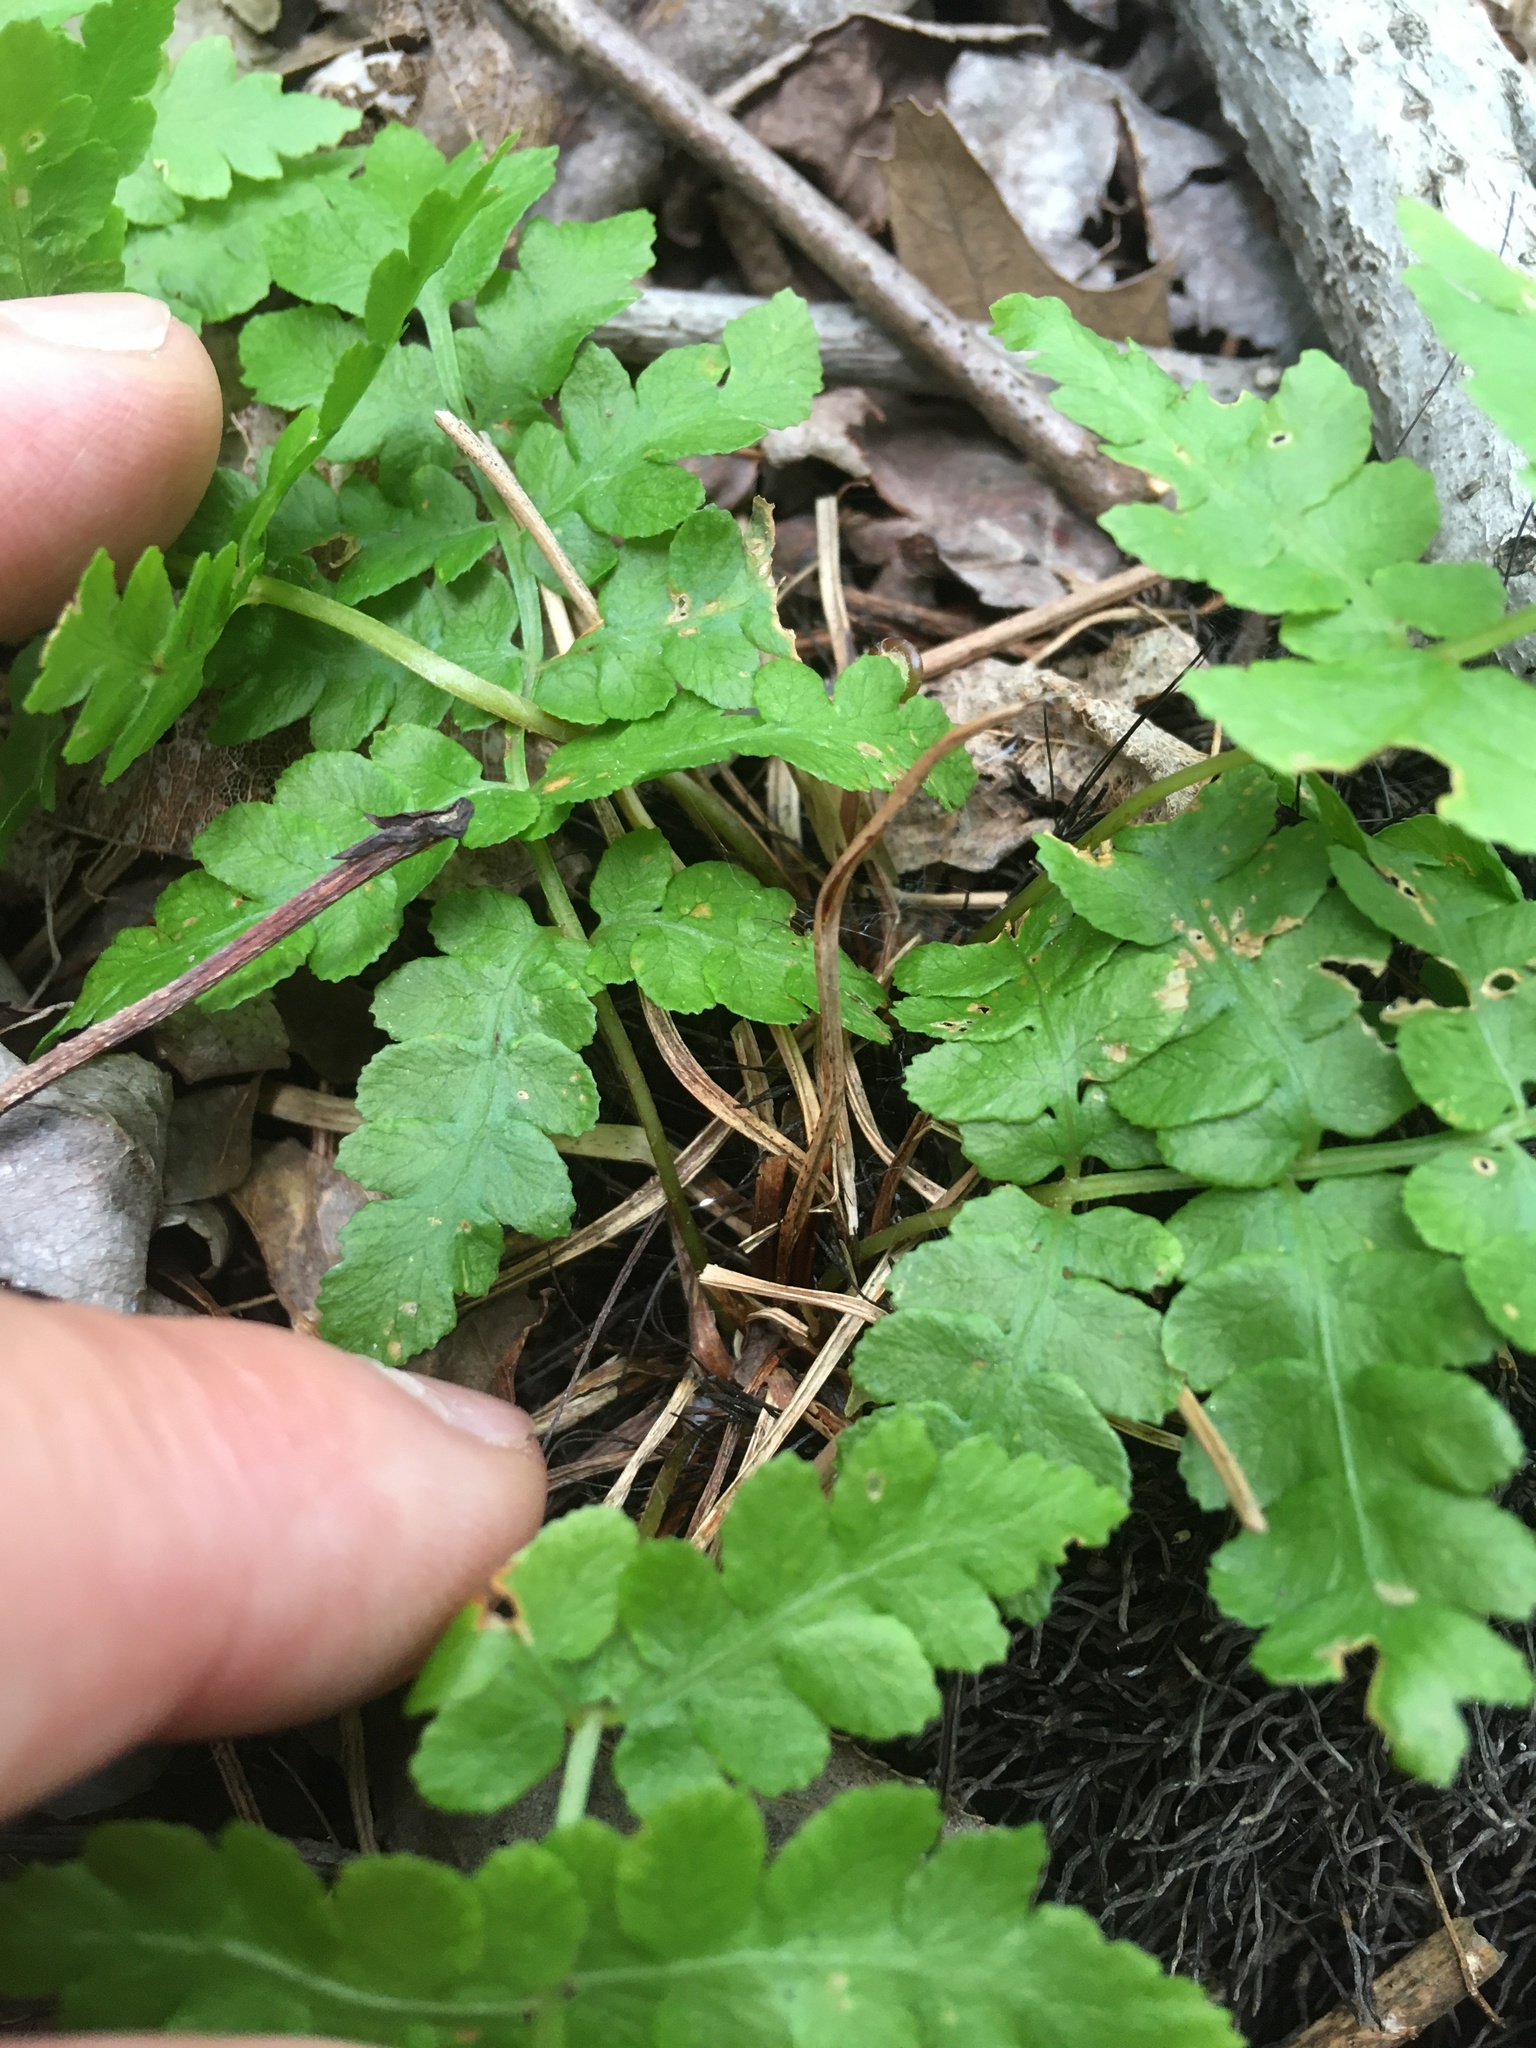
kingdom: Plantae
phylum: Tracheophyta
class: Polypodiopsida
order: Polypodiales
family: Dryopteridaceae
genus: Dryopteris
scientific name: Dryopteris cristata
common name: Crested wood fern
